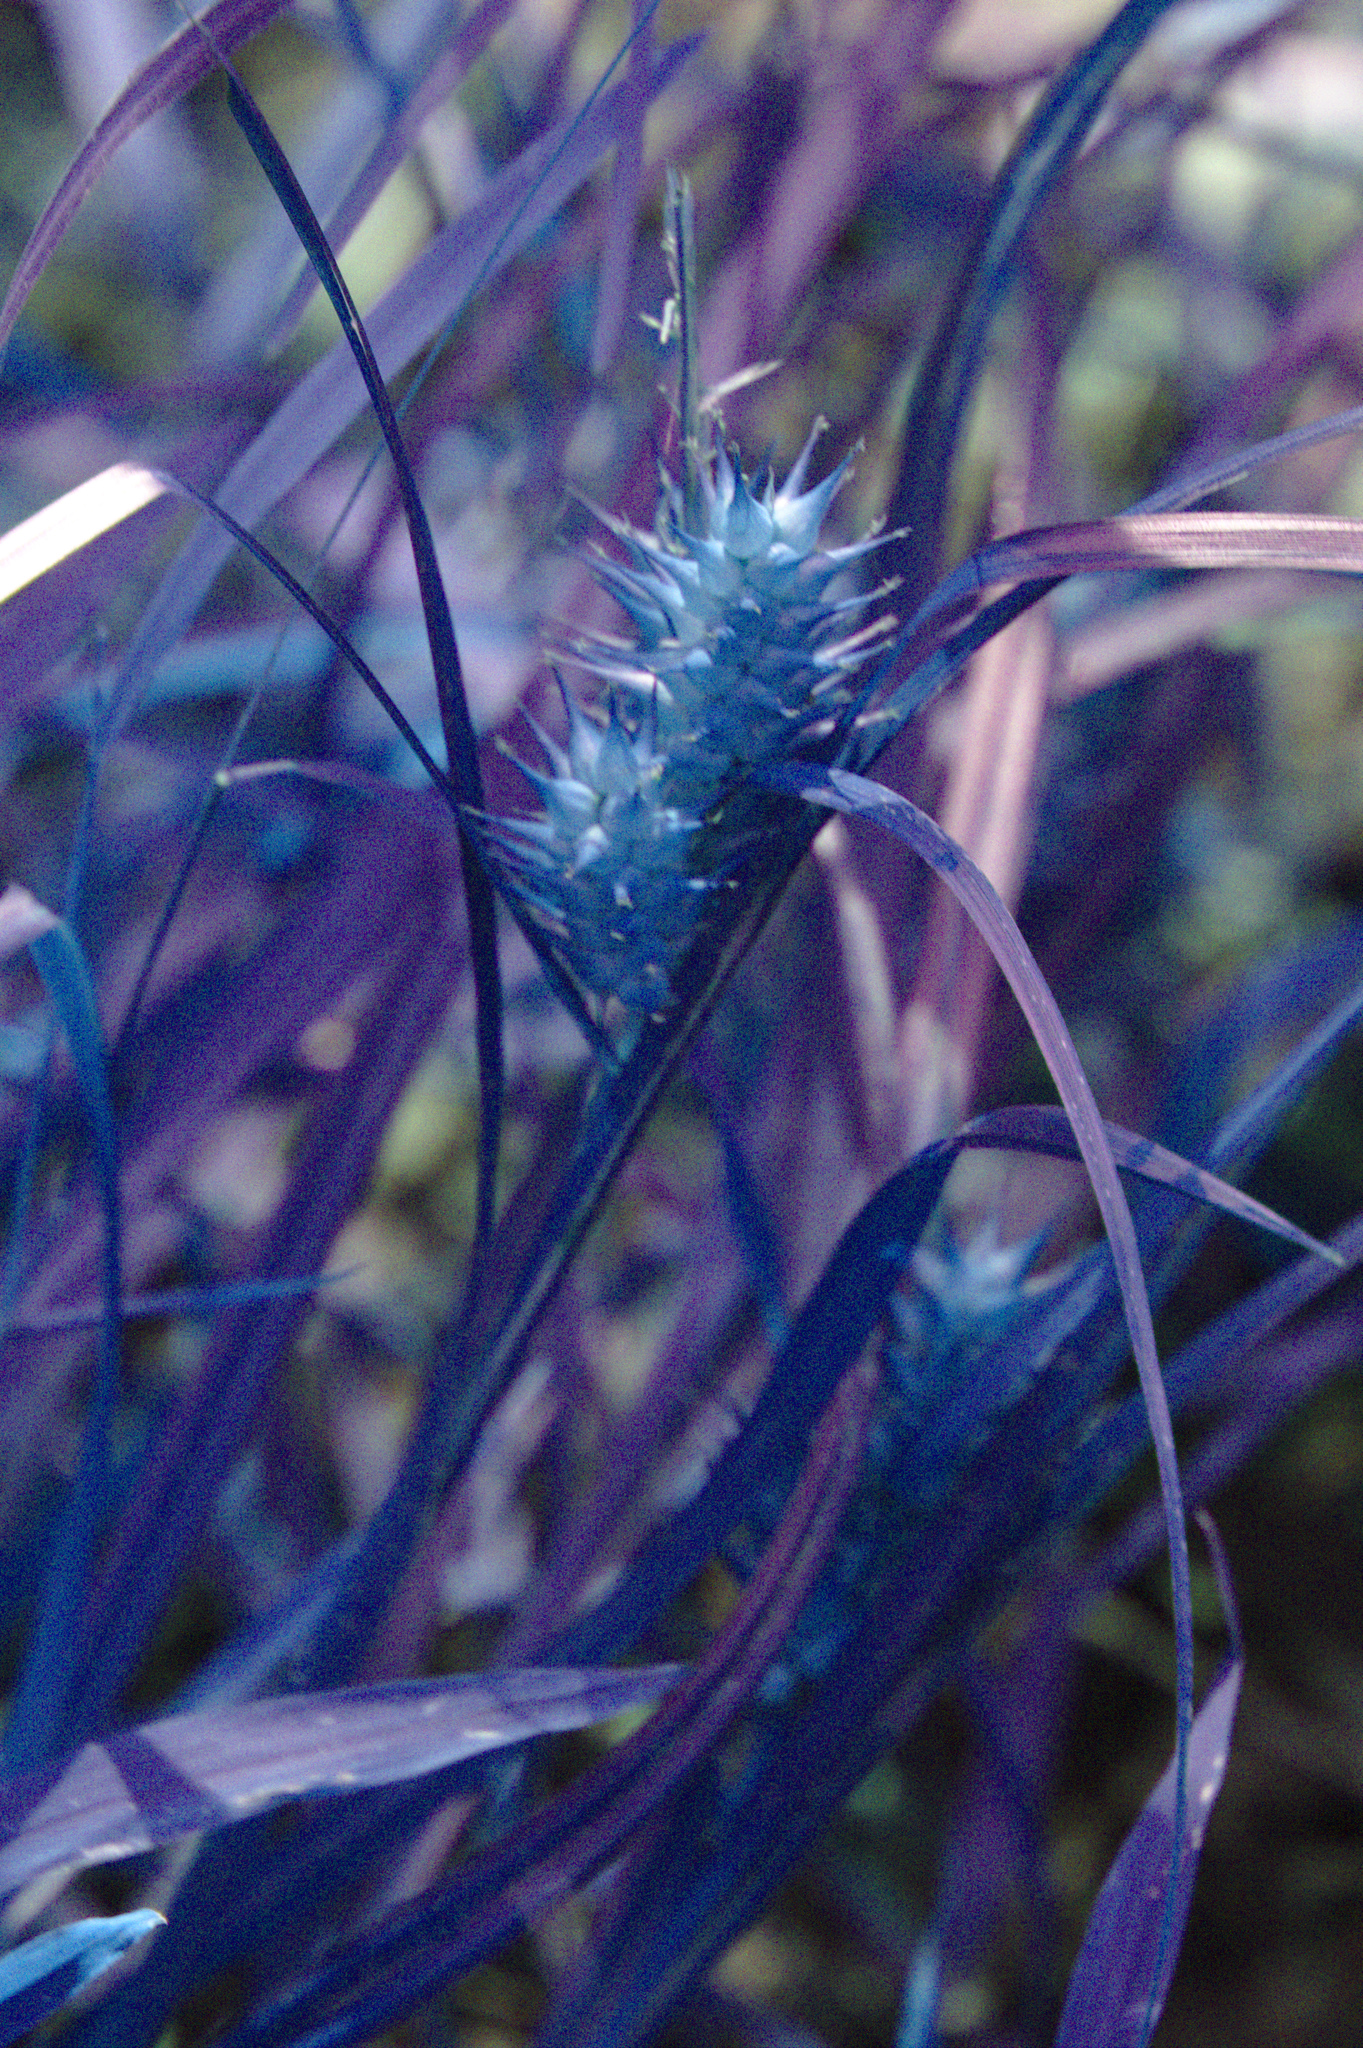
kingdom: Plantae
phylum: Tracheophyta
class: Liliopsida
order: Poales
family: Cyperaceae
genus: Carex
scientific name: Carex lupulina
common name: Hop sedge
